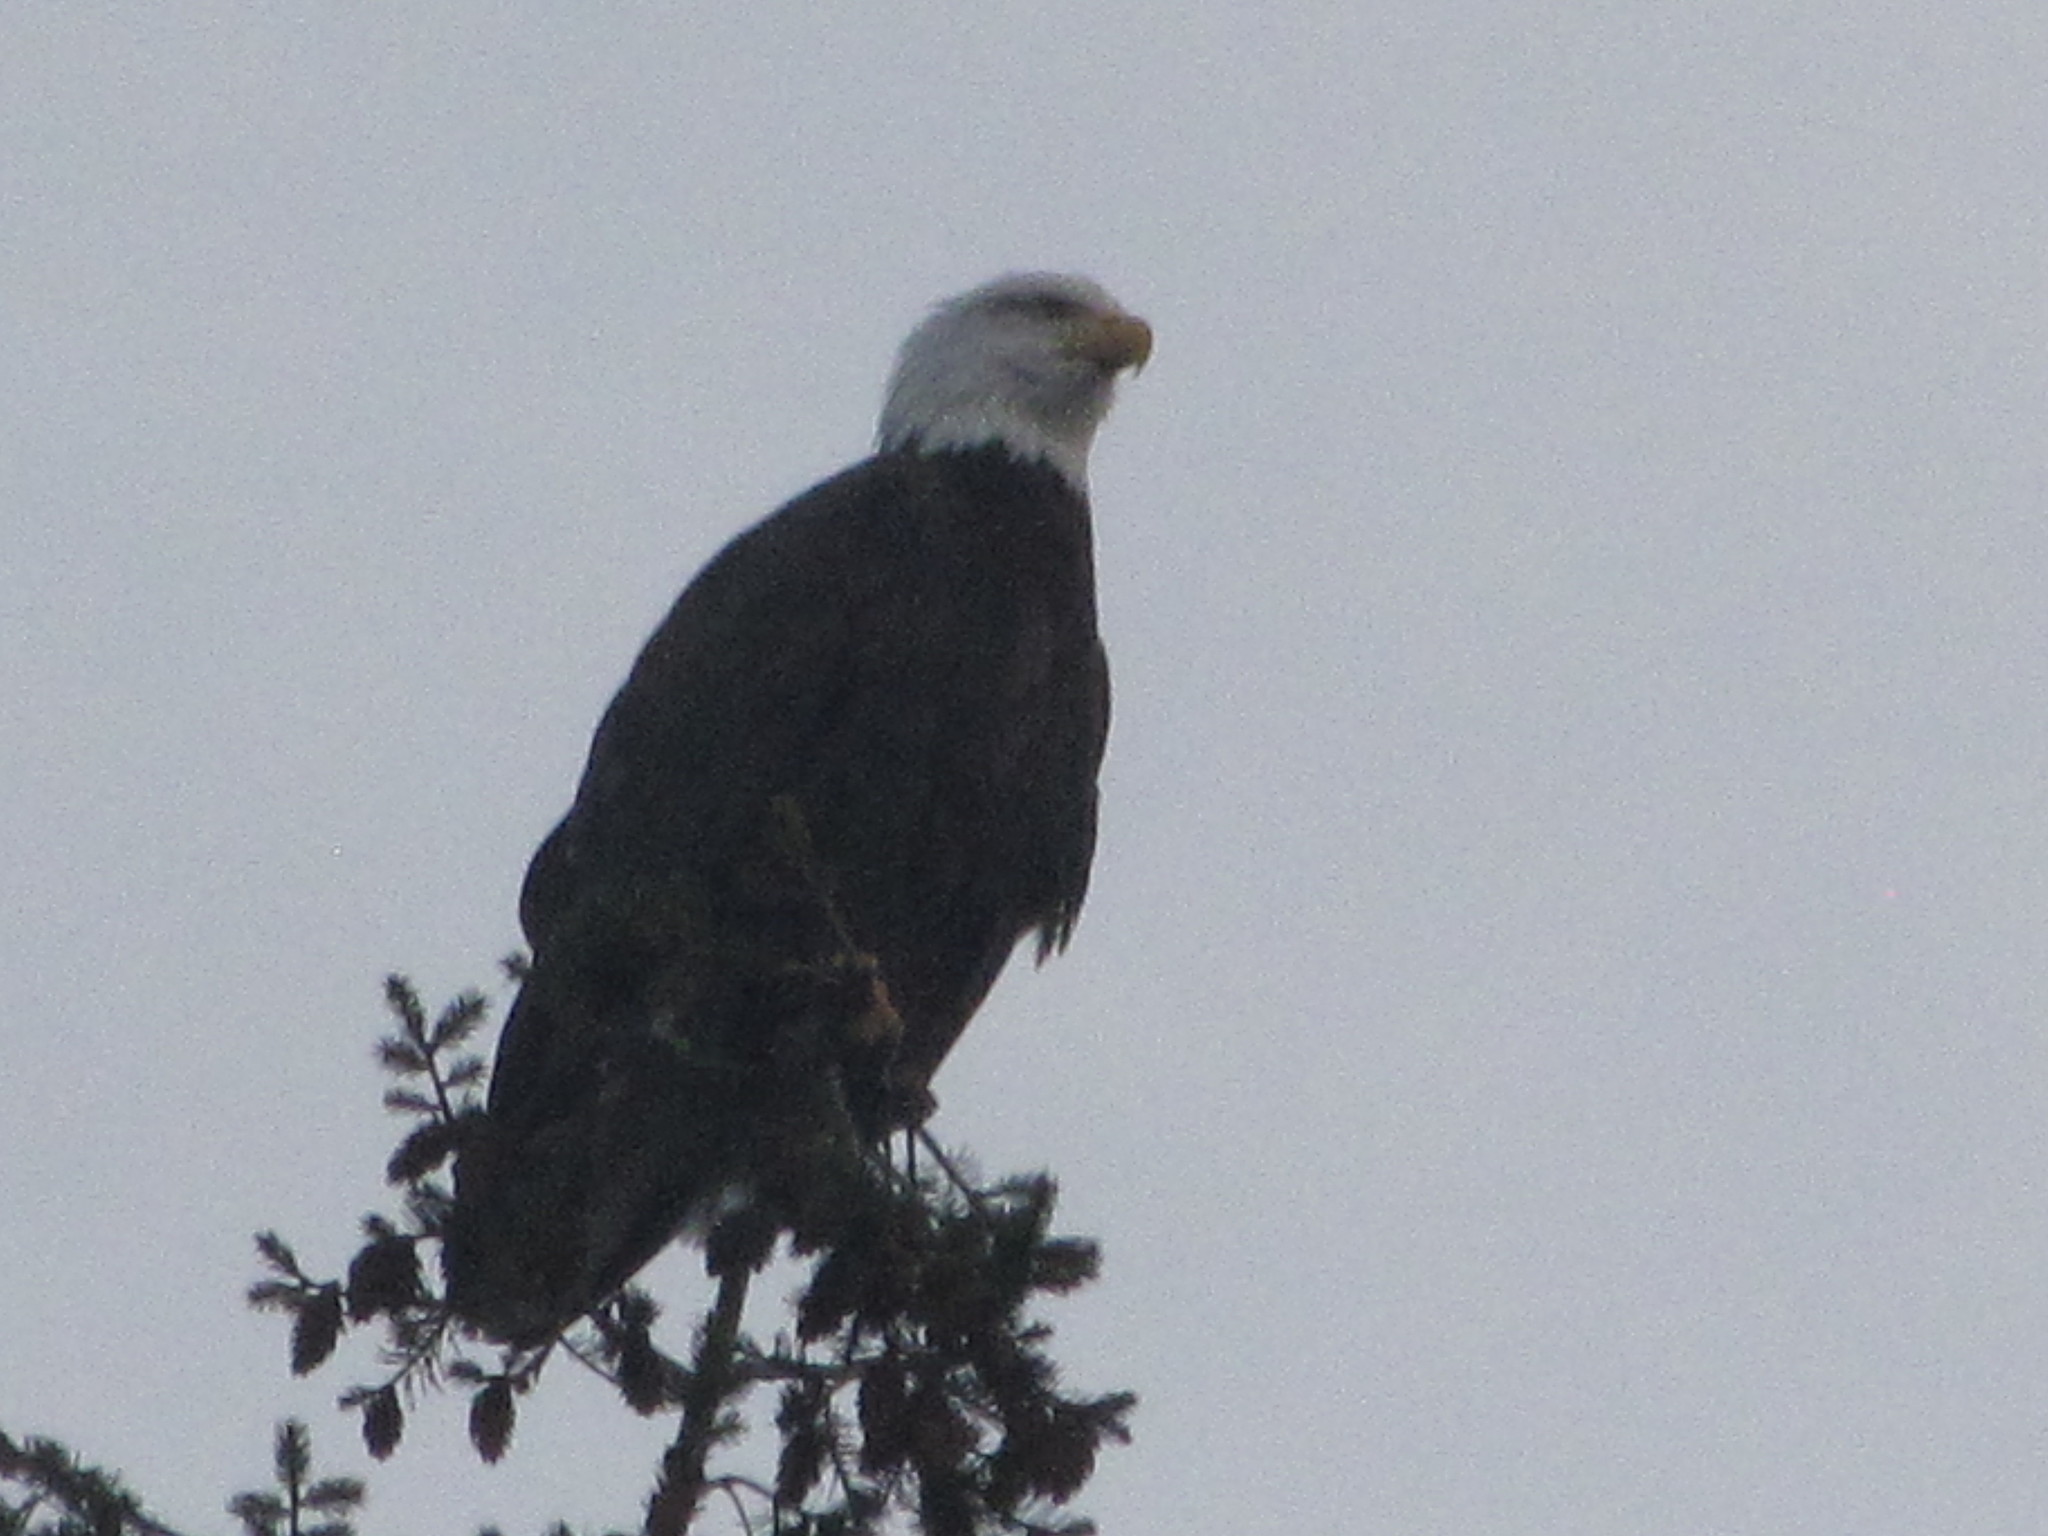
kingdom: Animalia
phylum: Chordata
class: Aves
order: Accipitriformes
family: Accipitridae
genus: Haliaeetus
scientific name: Haliaeetus leucocephalus
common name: Bald eagle
